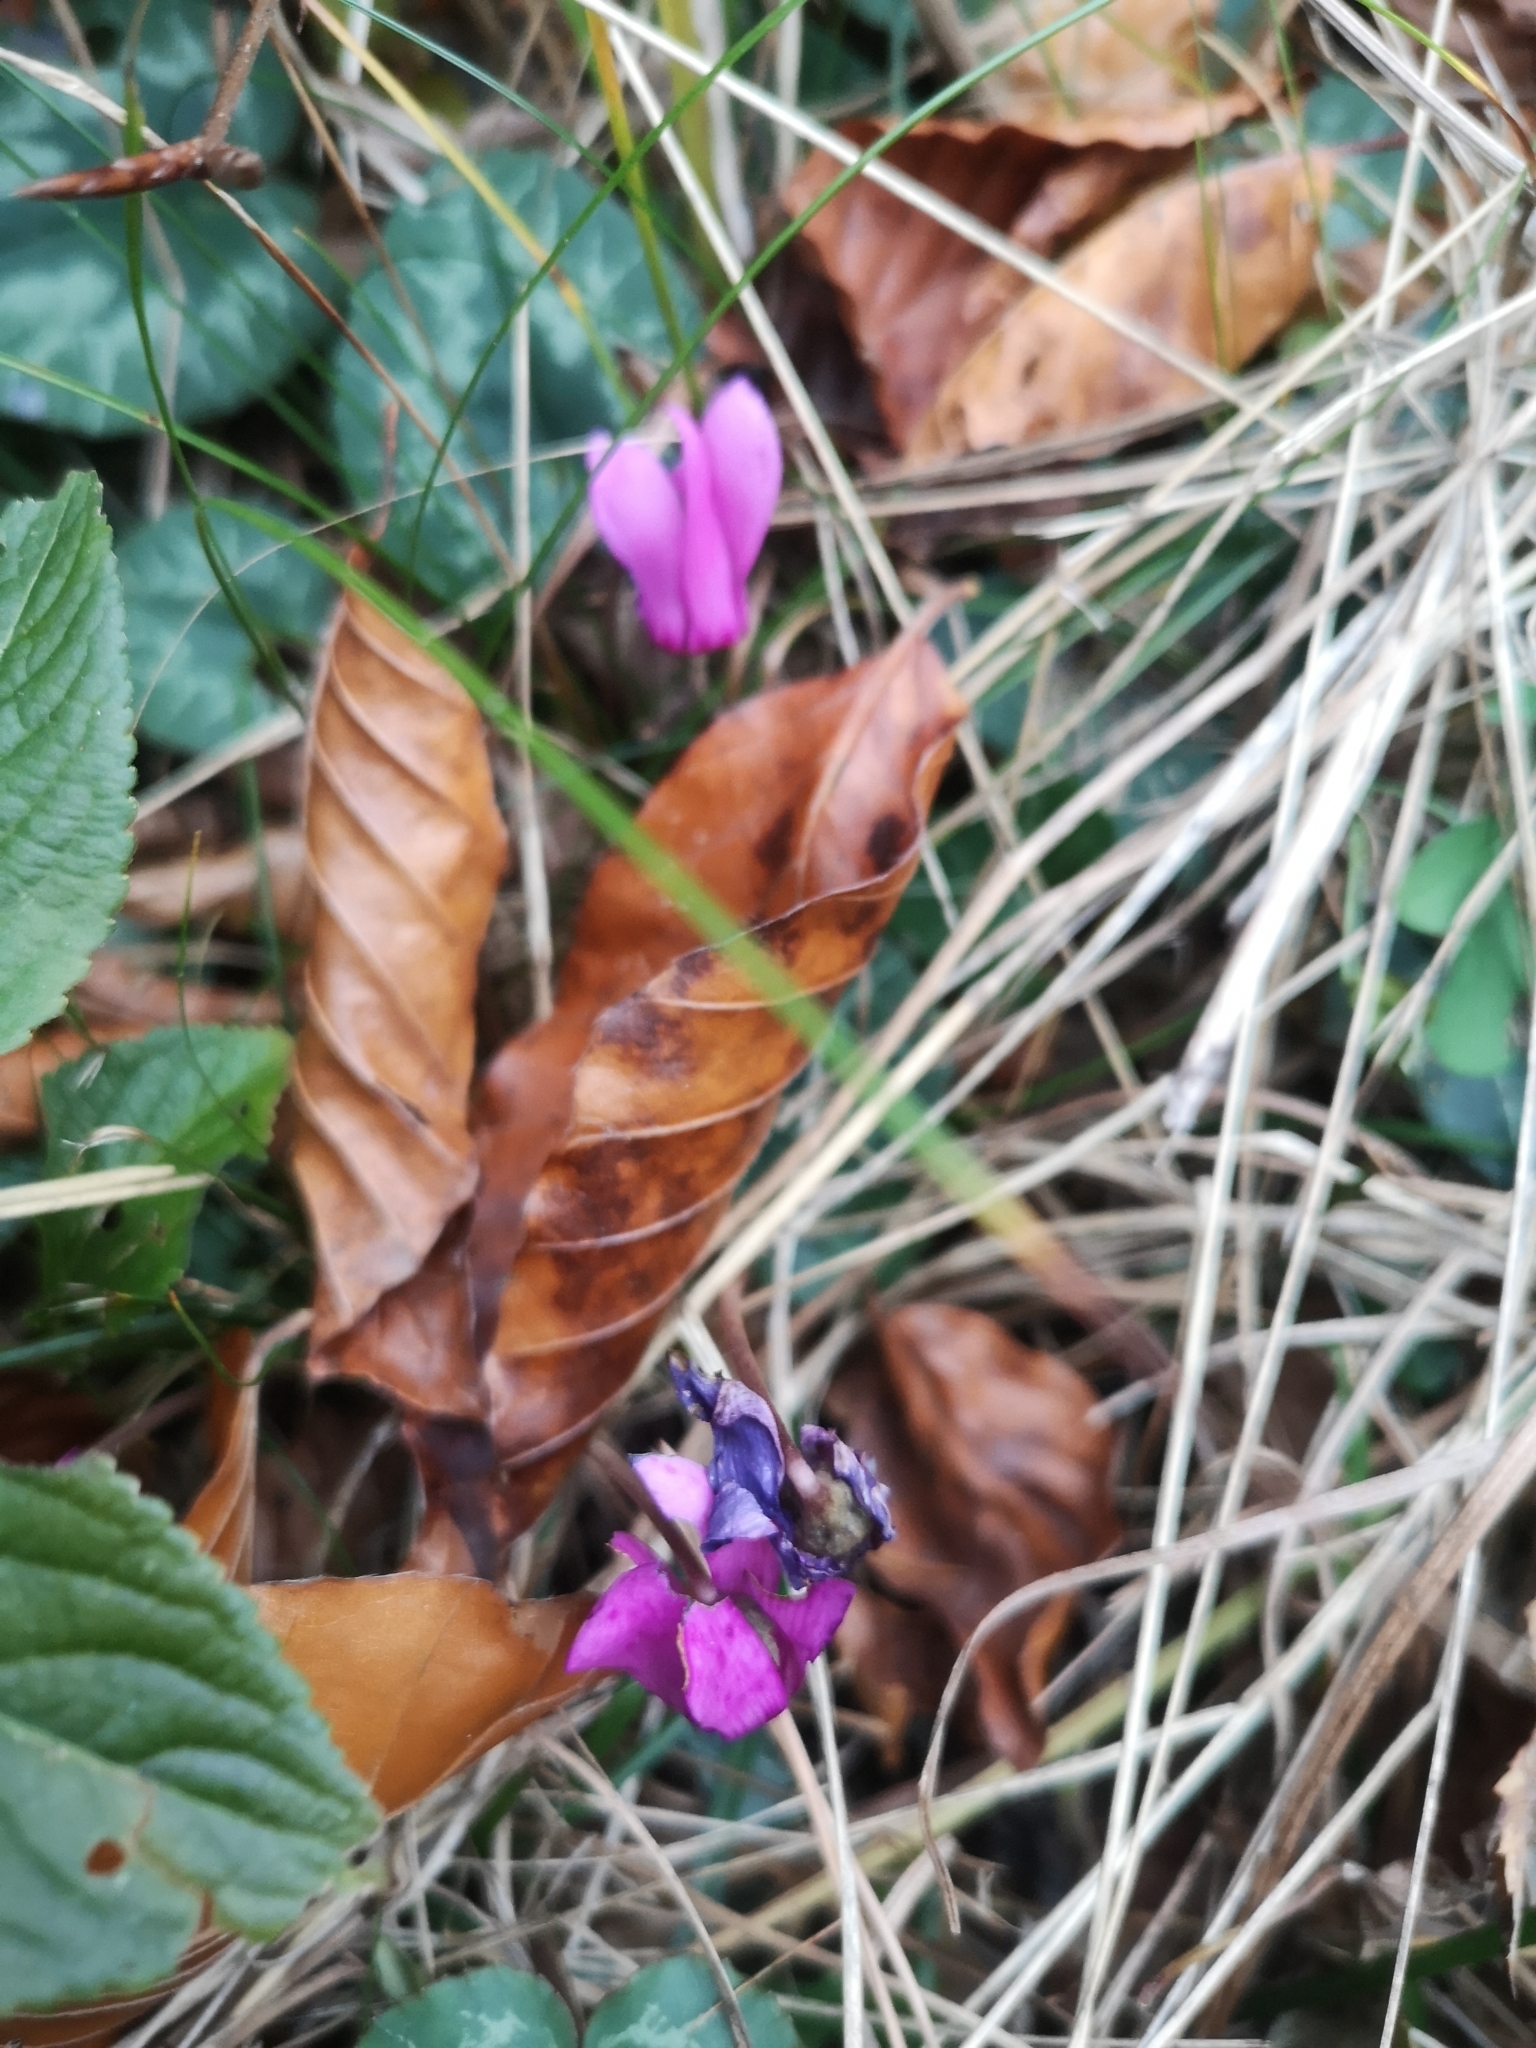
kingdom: Plantae
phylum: Tracheophyta
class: Magnoliopsida
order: Ericales
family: Primulaceae
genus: Cyclamen
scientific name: Cyclamen purpurascens
